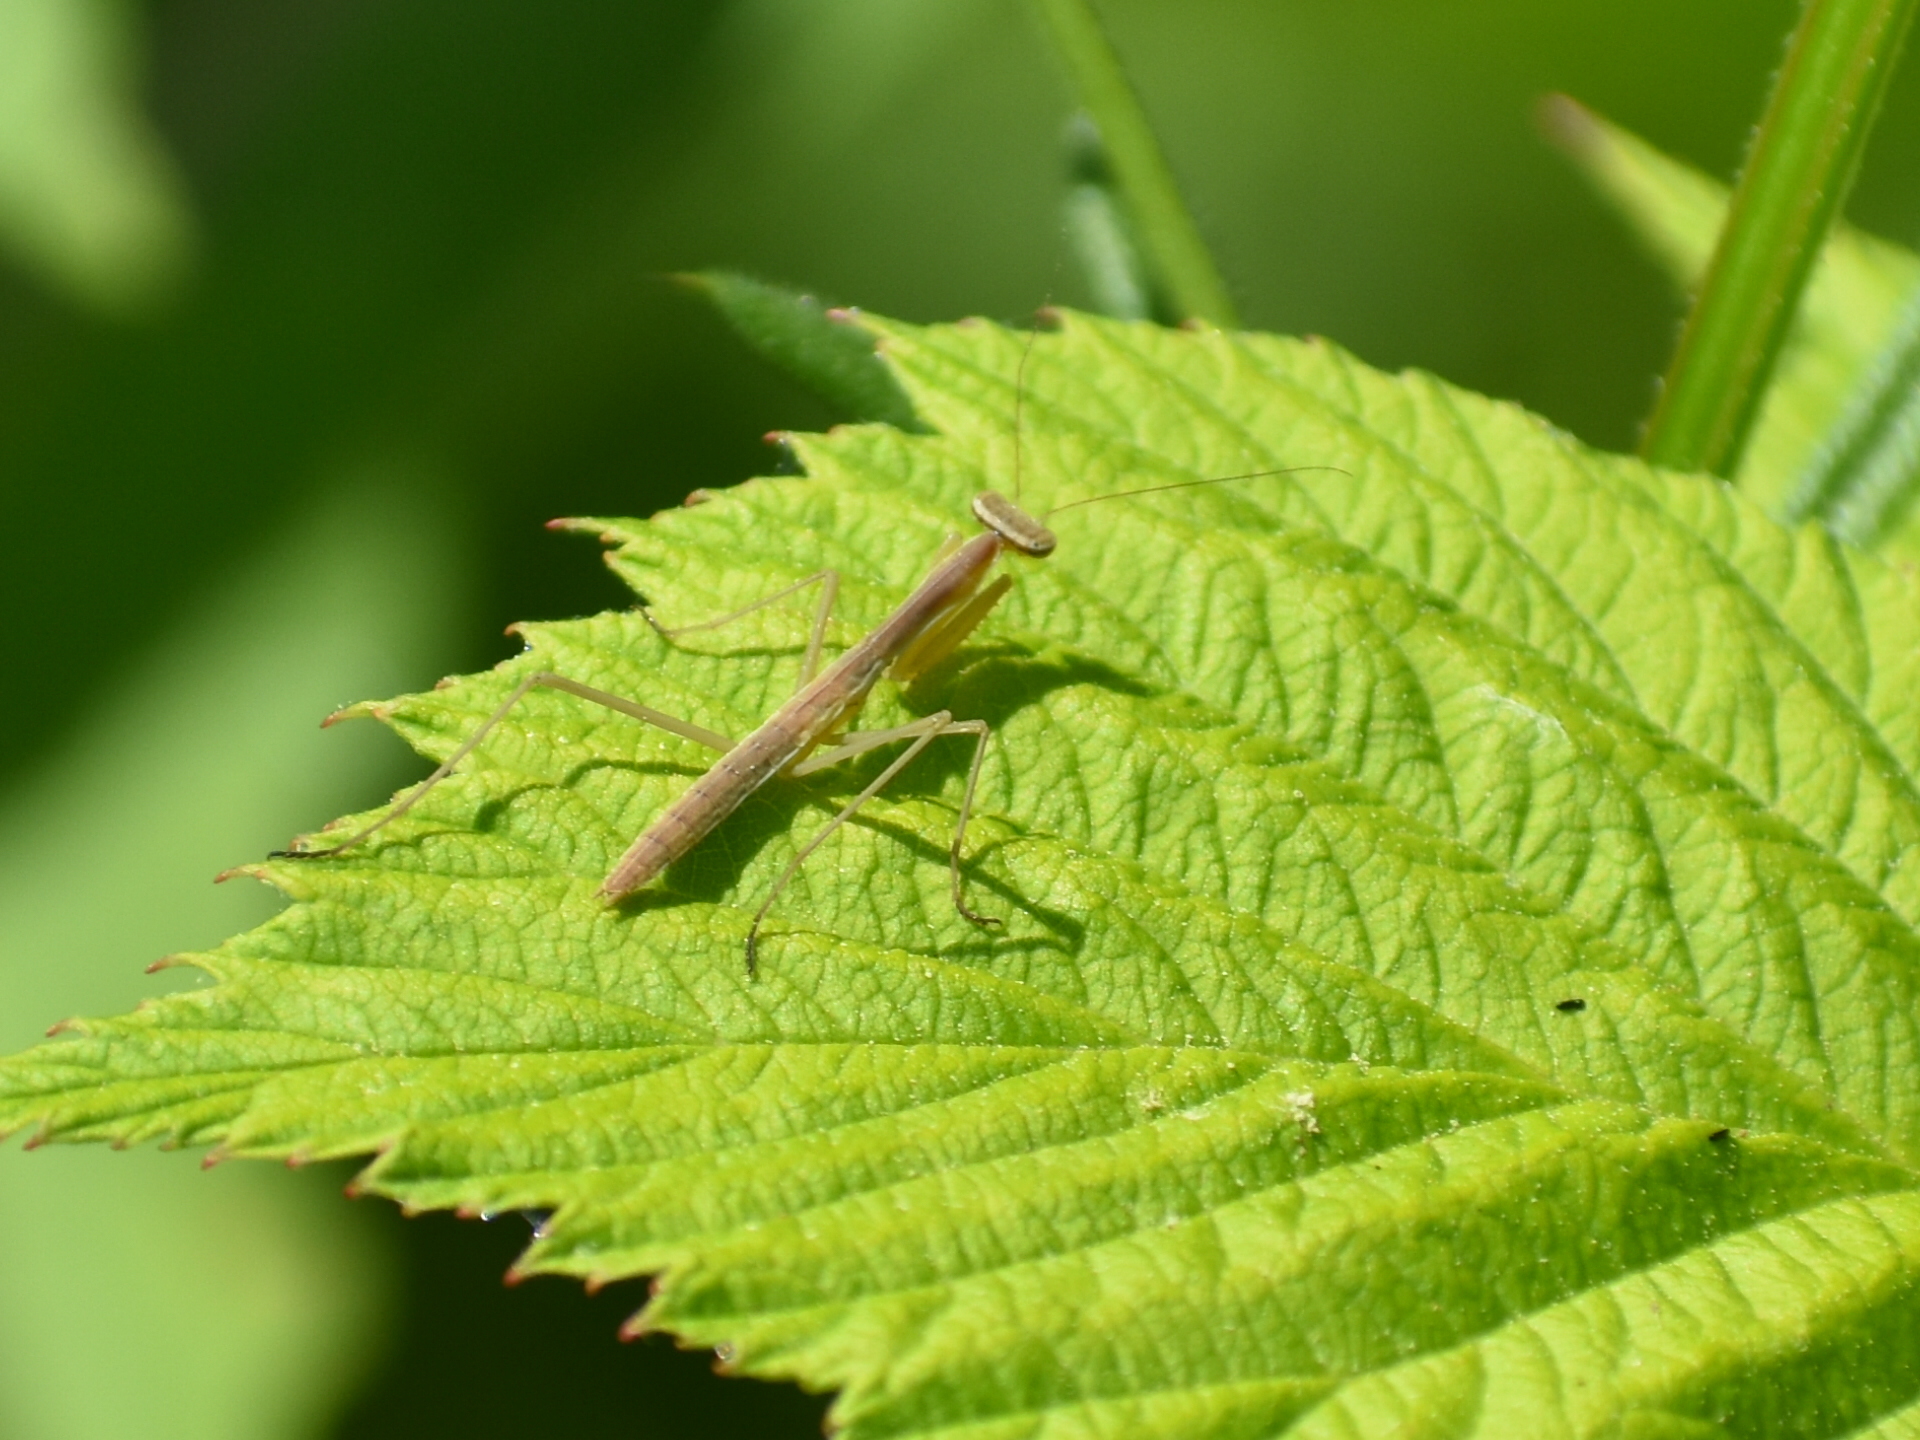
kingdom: Animalia
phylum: Arthropoda
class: Insecta
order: Mantodea
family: Mantidae
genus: Tenodera
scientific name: Tenodera sinensis
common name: Chinese mantis
